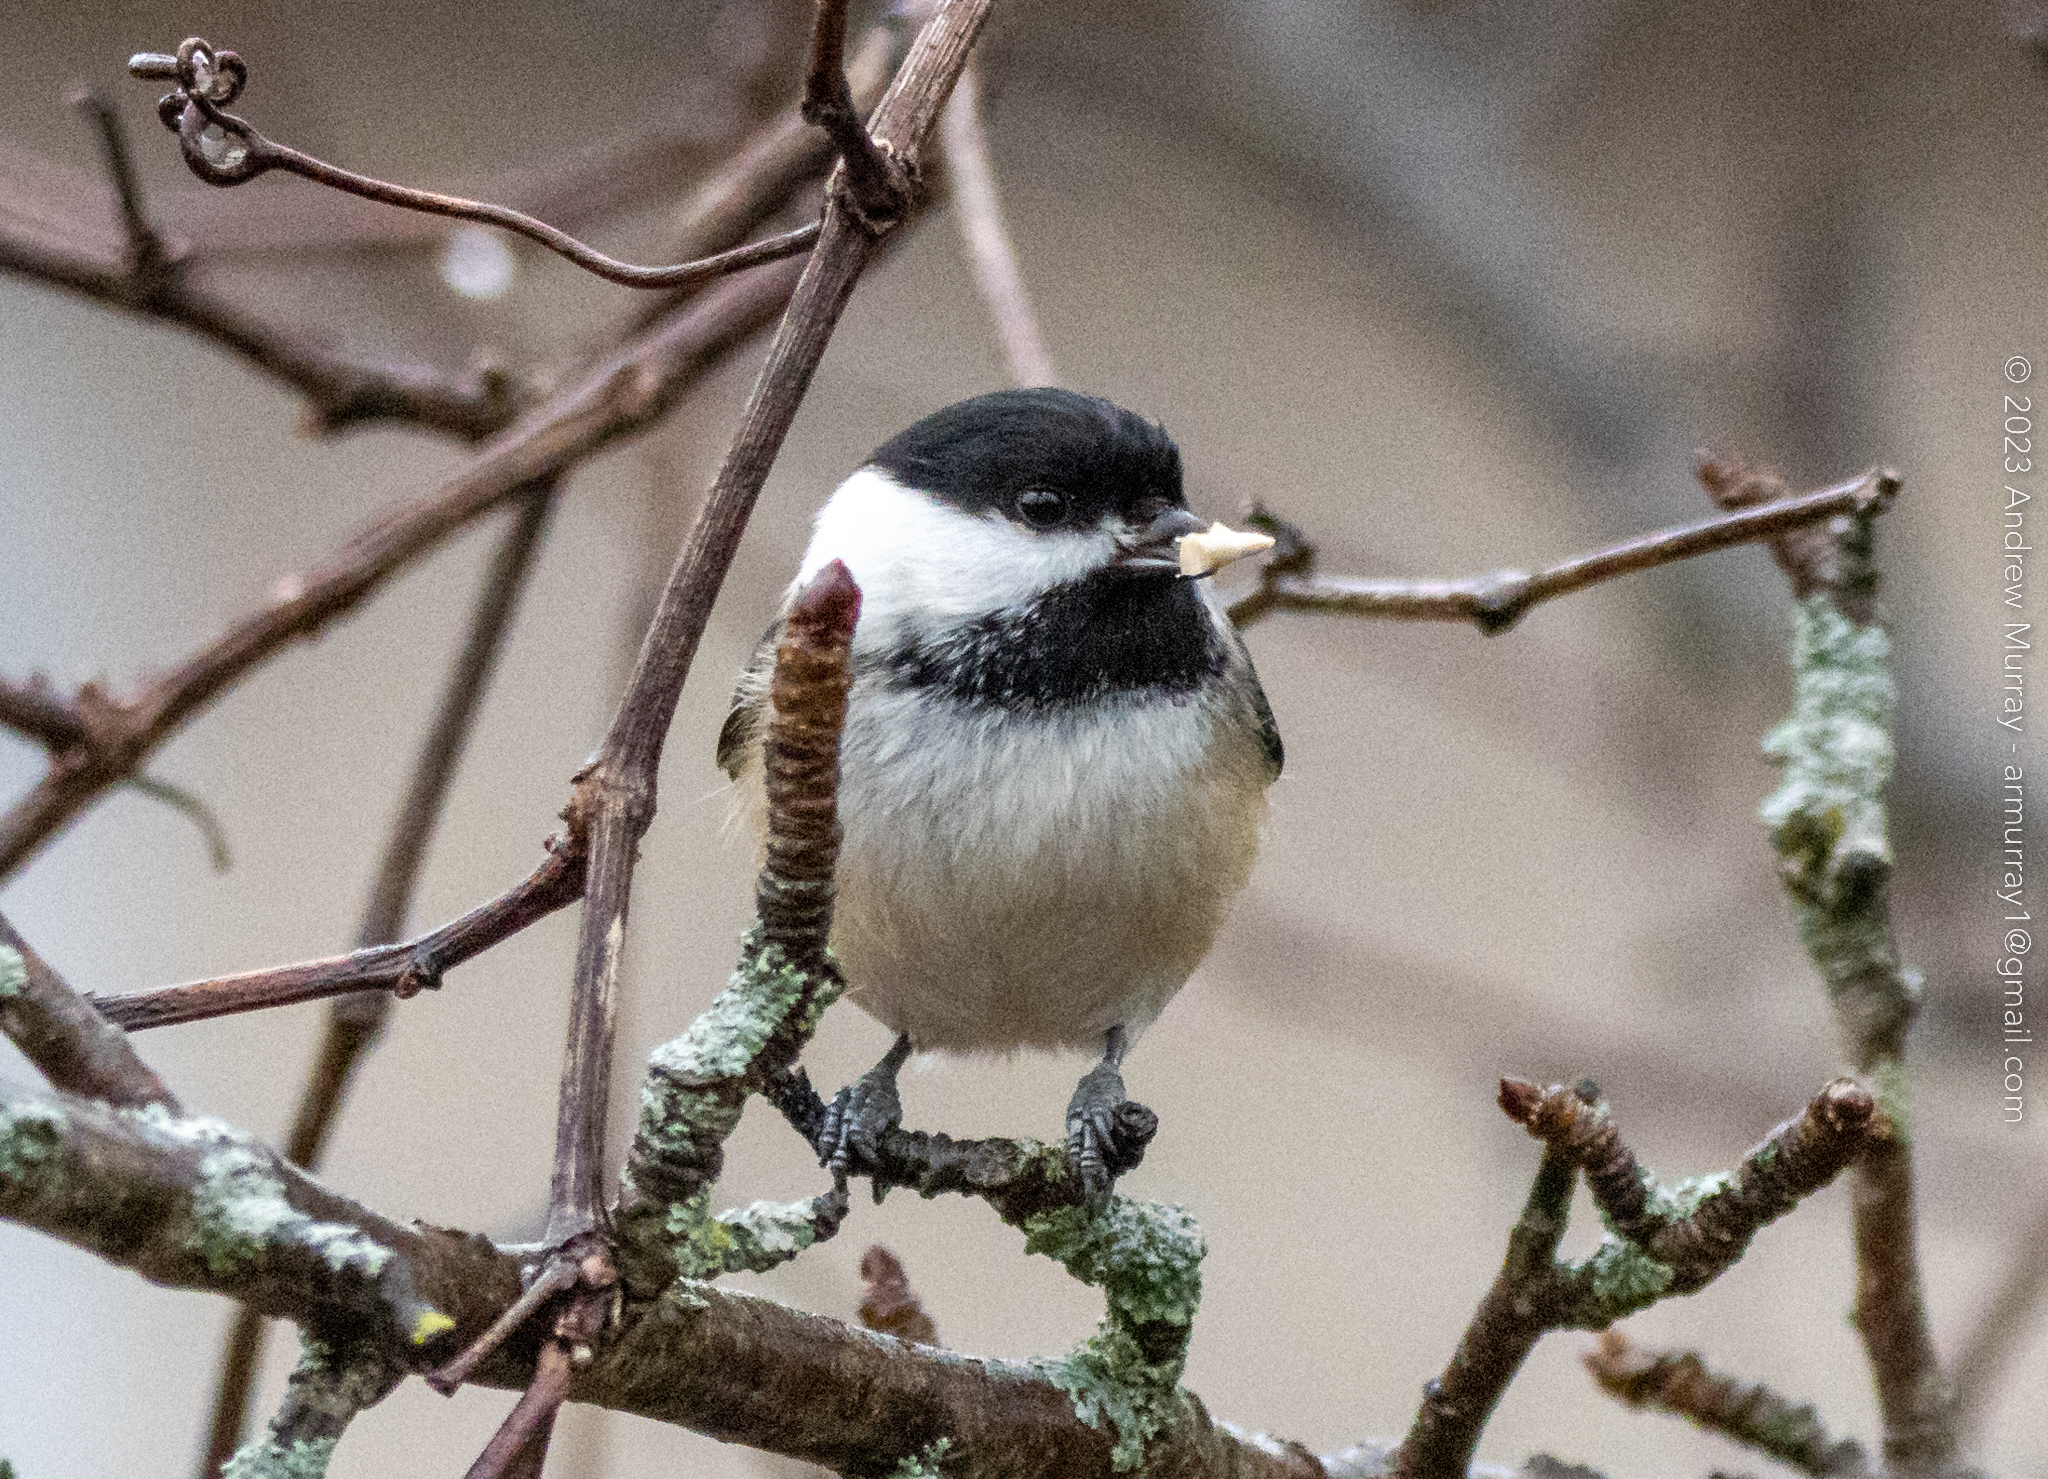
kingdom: Animalia
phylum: Chordata
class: Aves
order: Passeriformes
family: Paridae
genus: Poecile
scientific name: Poecile atricapillus
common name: Black-capped chickadee
